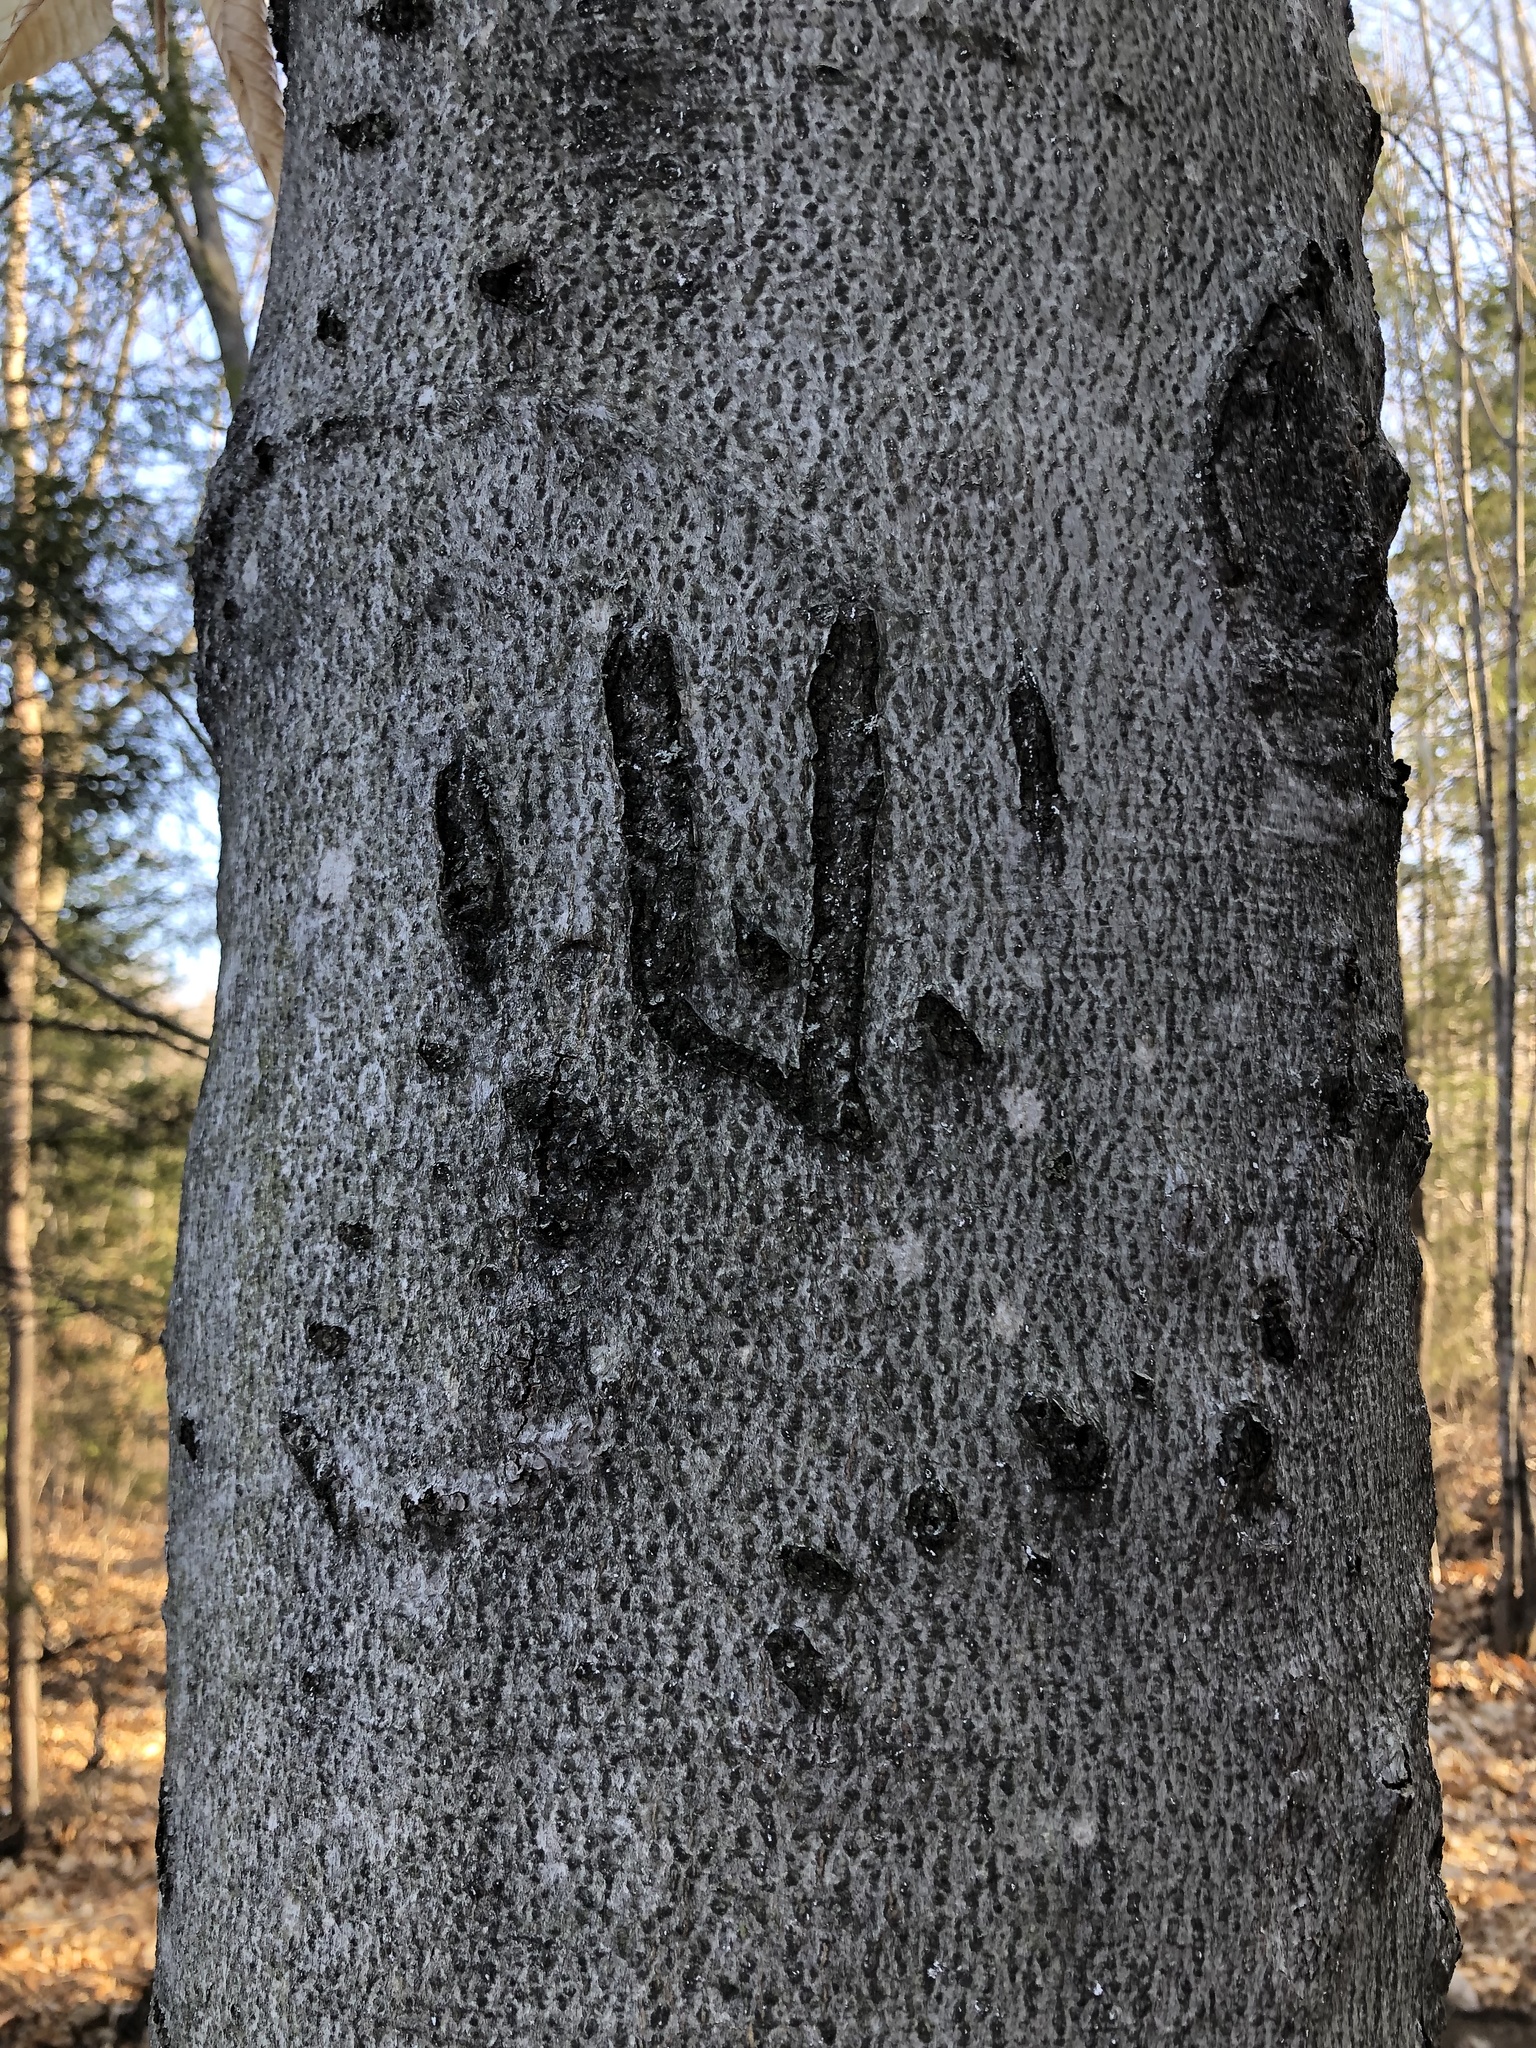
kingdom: Plantae
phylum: Tracheophyta
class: Magnoliopsida
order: Fagales
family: Fagaceae
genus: Fagus
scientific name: Fagus grandifolia
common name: American beech
